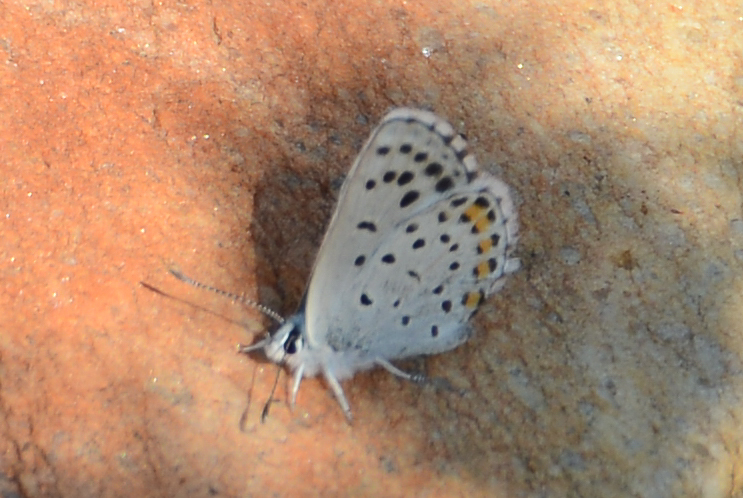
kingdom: Animalia
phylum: Arthropoda
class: Insecta
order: Lepidoptera
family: Lycaenidae
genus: Pseudophilotes
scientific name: Pseudophilotes baton
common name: Baton blue
